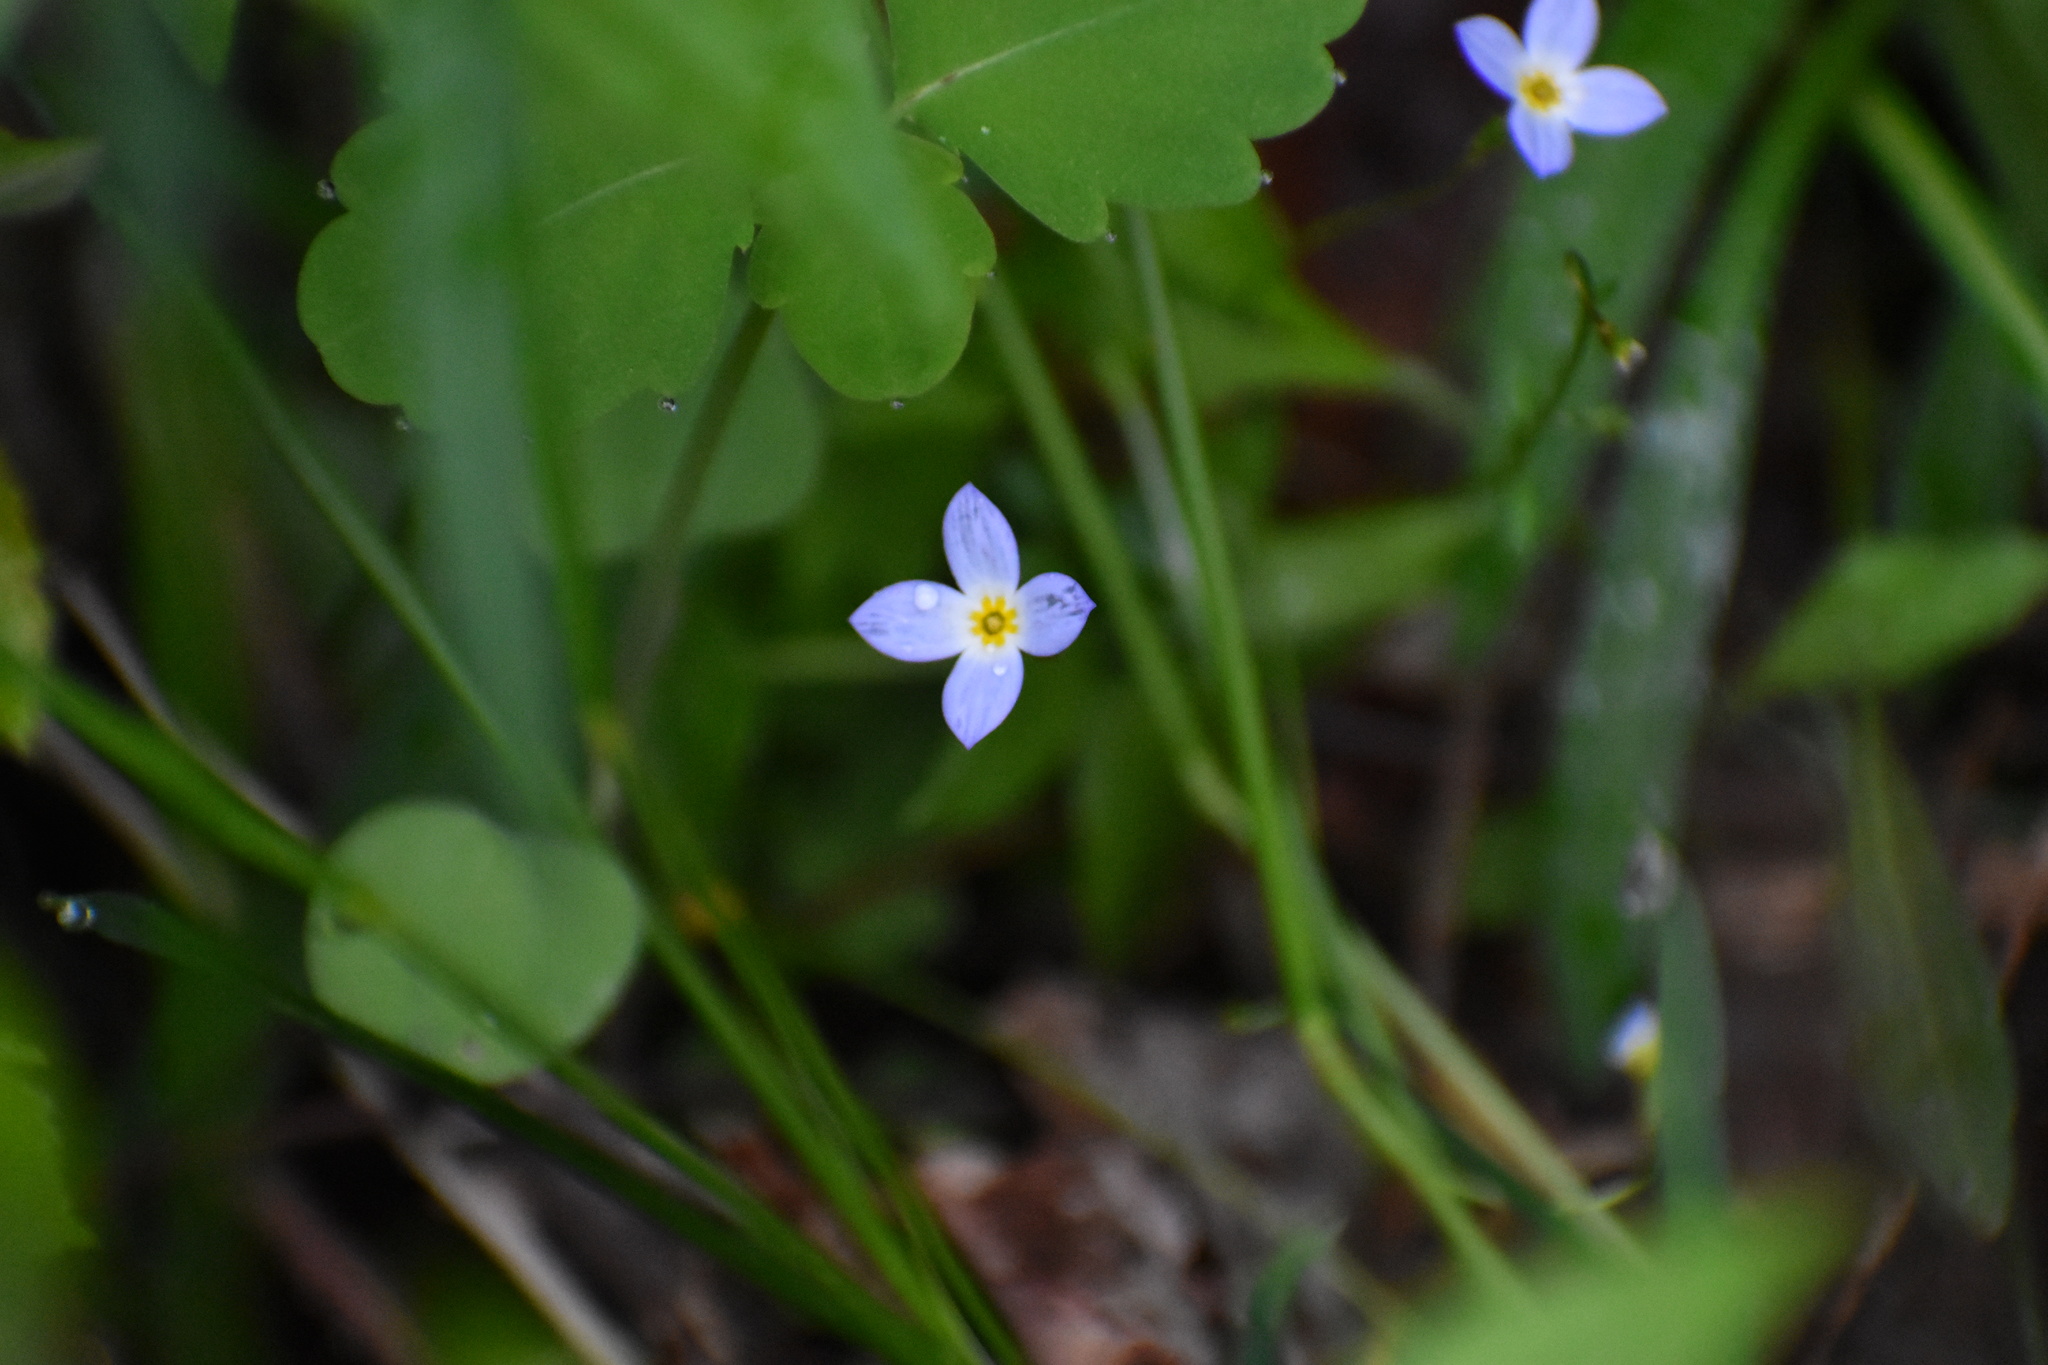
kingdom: Plantae
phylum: Tracheophyta
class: Magnoliopsida
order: Gentianales
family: Rubiaceae
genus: Houstonia
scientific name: Houstonia caerulea
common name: Bluets
